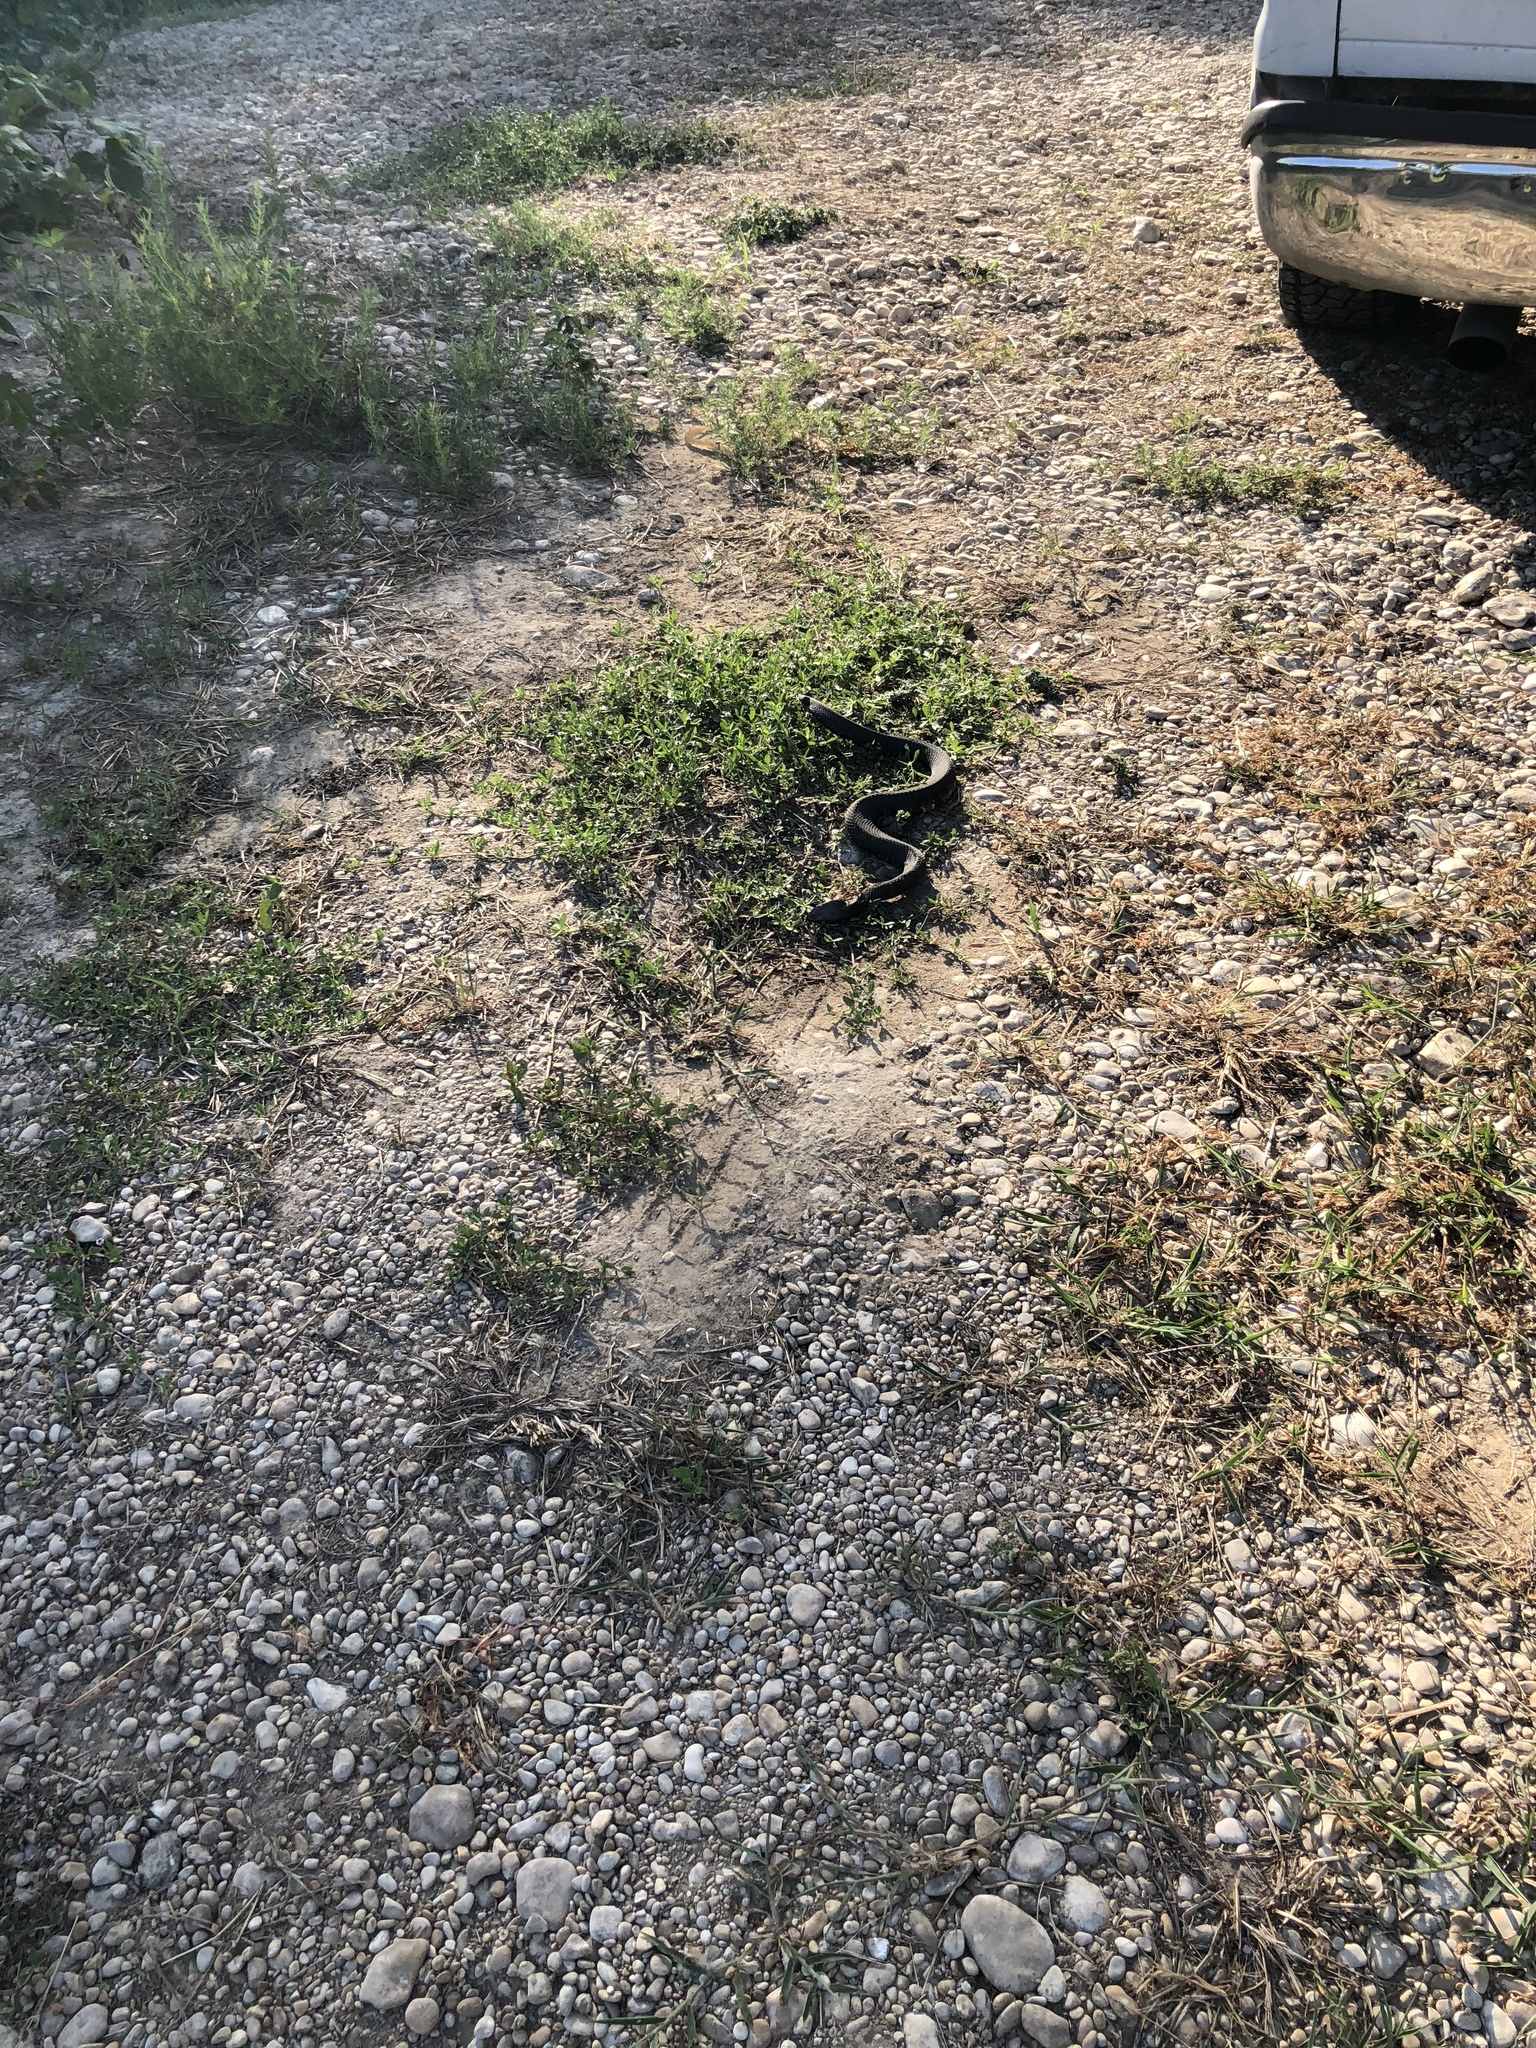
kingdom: Animalia
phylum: Chordata
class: Squamata
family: Viperidae
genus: Agkistrodon
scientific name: Agkistrodon piscivorus
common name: Cottonmouth
